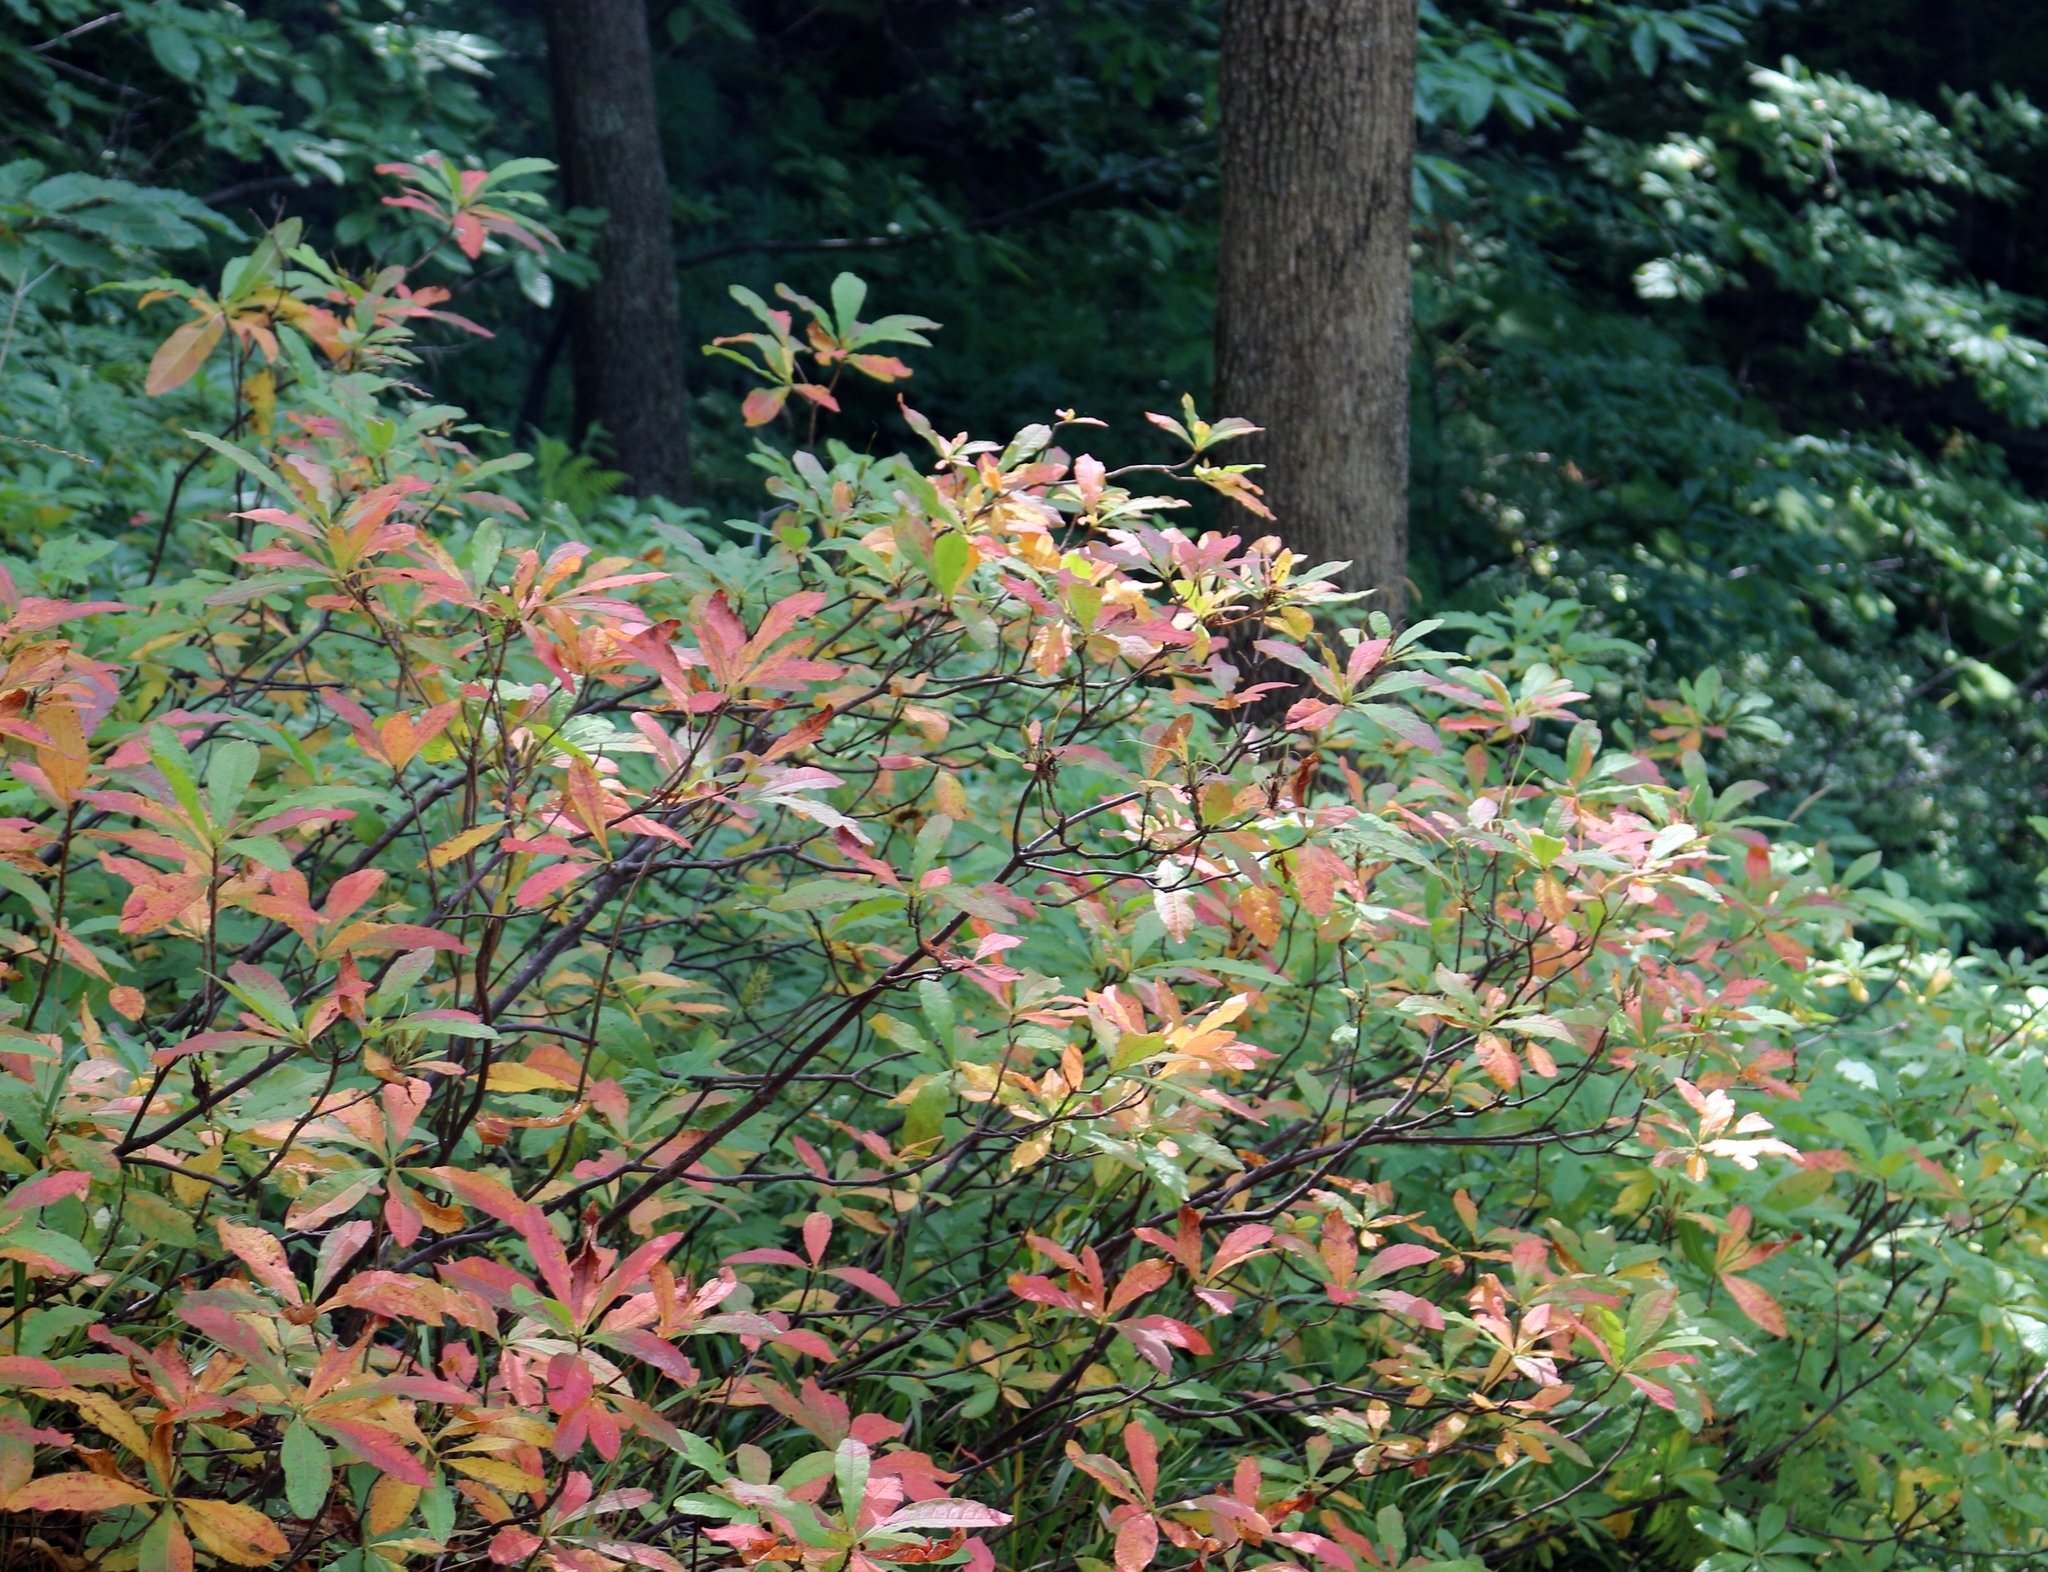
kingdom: Plantae
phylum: Tracheophyta
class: Magnoliopsida
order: Ericales
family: Ericaceae
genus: Rhododendron
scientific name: Rhododendron luteum
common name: Yellow azalea
